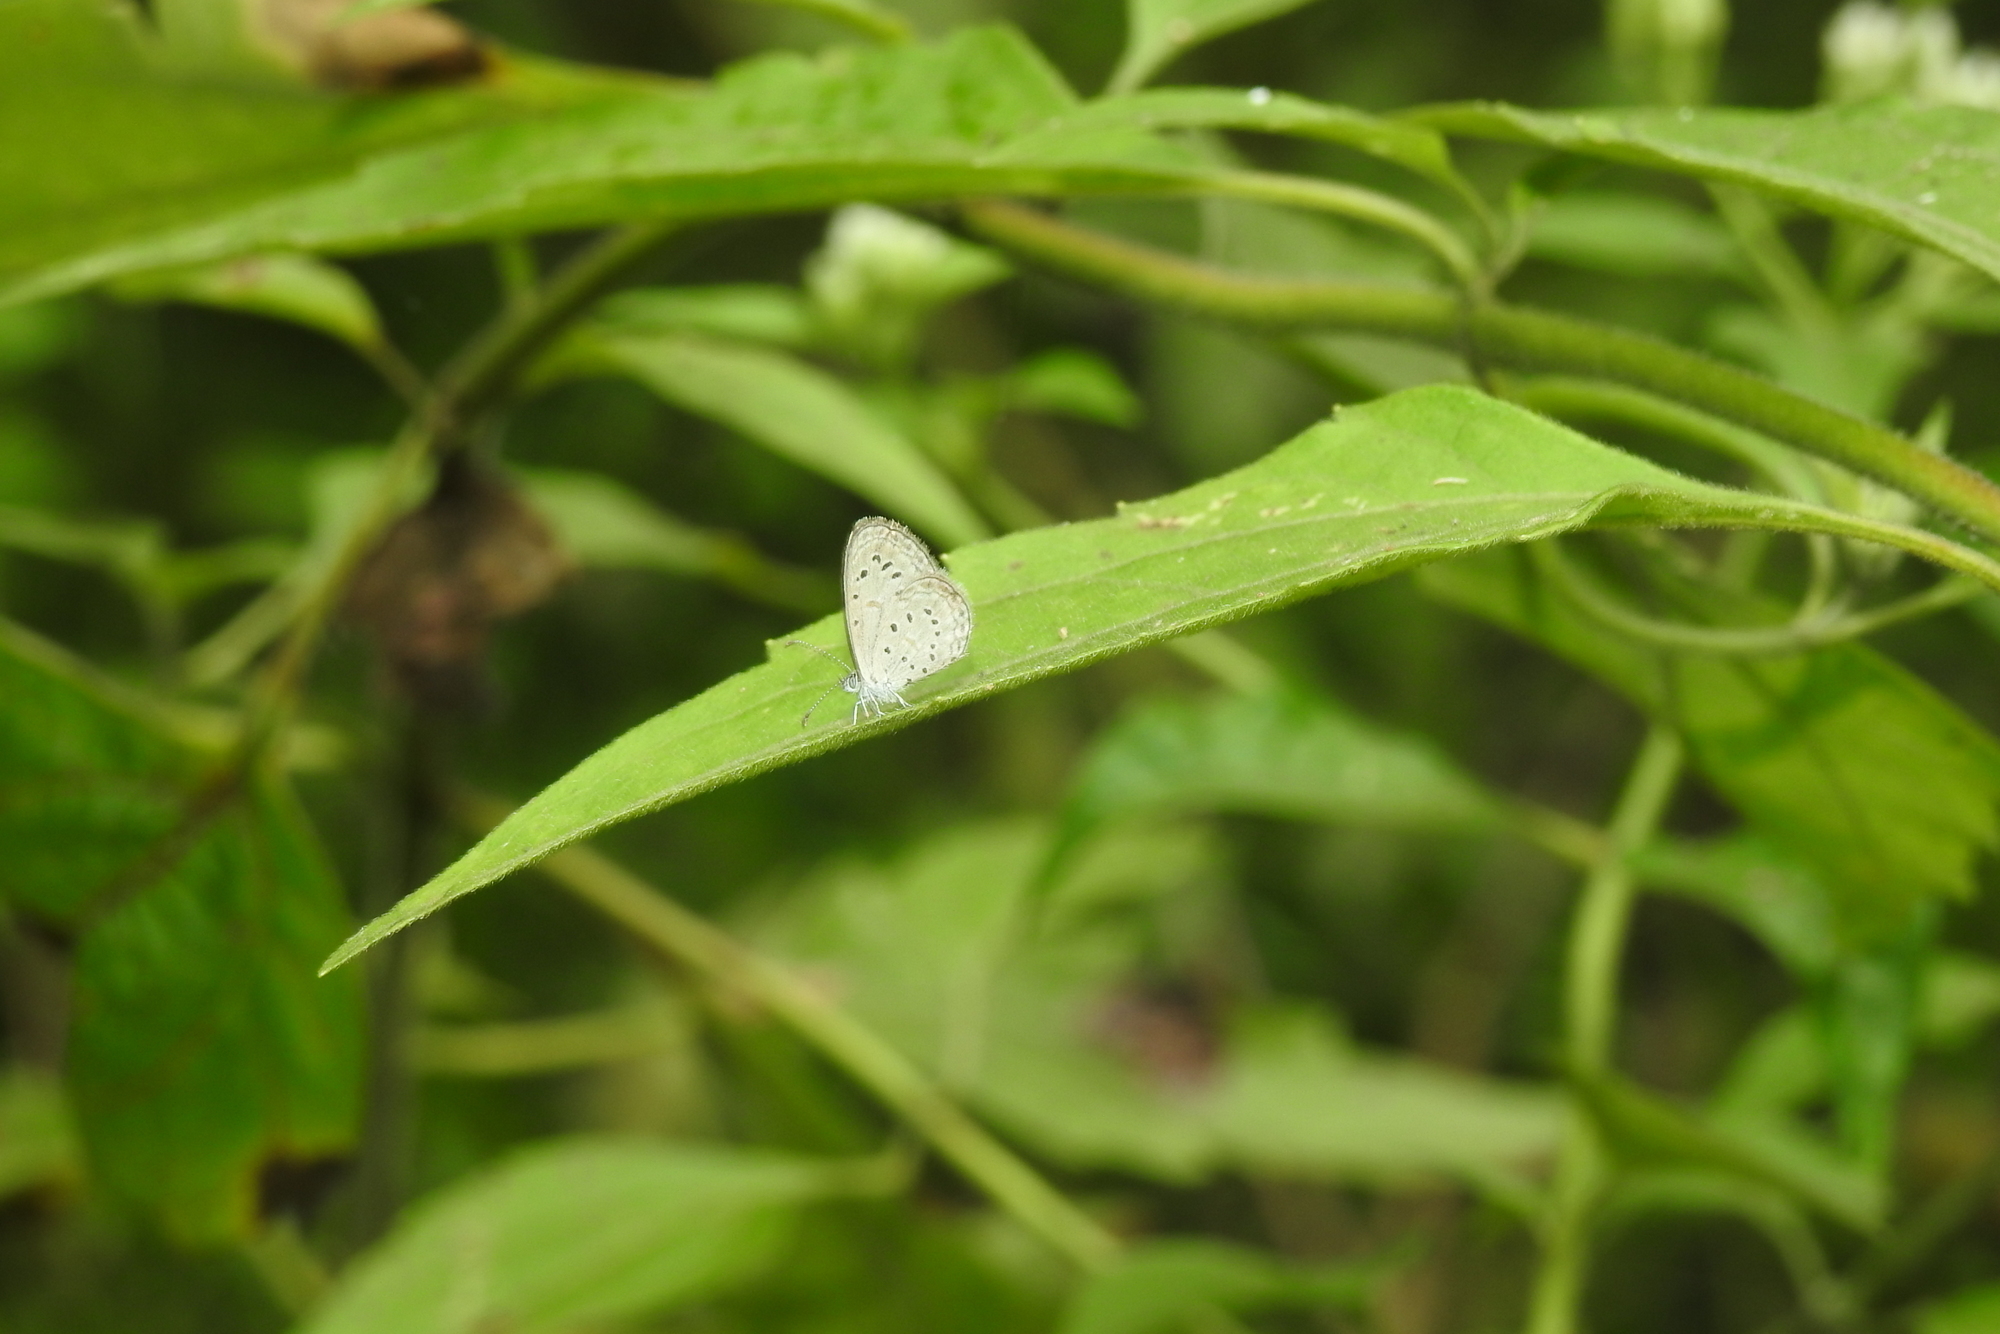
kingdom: Animalia
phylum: Arthropoda
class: Insecta
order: Lepidoptera
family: Lycaenidae
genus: Zizula
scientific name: Zizula hylax
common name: Gaika blue
